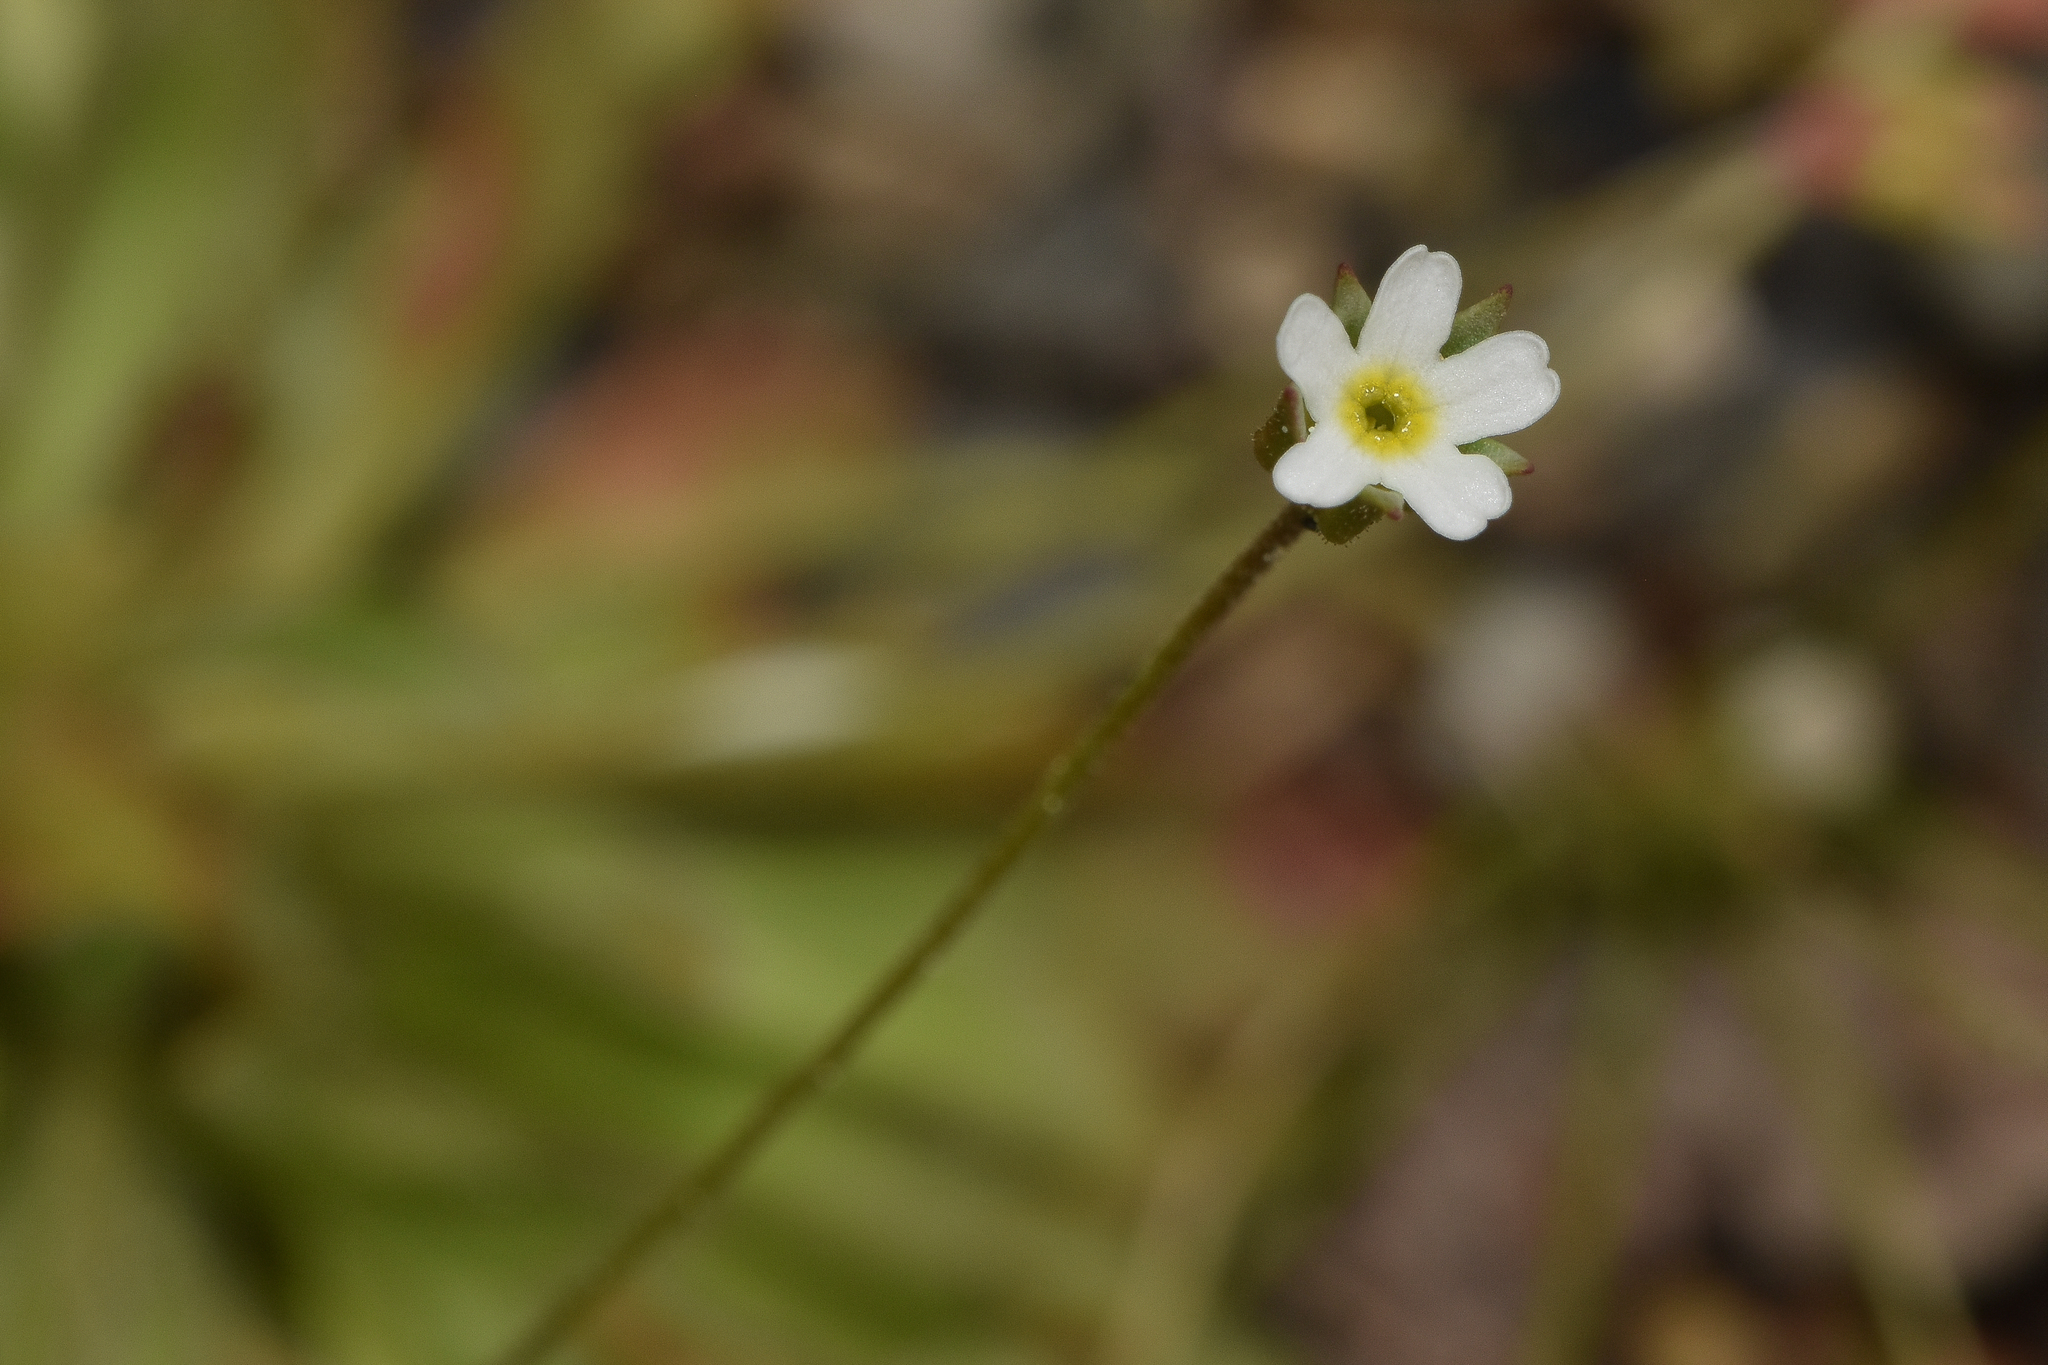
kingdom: Plantae
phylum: Tracheophyta
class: Magnoliopsida
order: Ericales
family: Primulaceae
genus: Androsace
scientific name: Androsace septentrionalis
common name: Hairy northern fairy-candelabra
